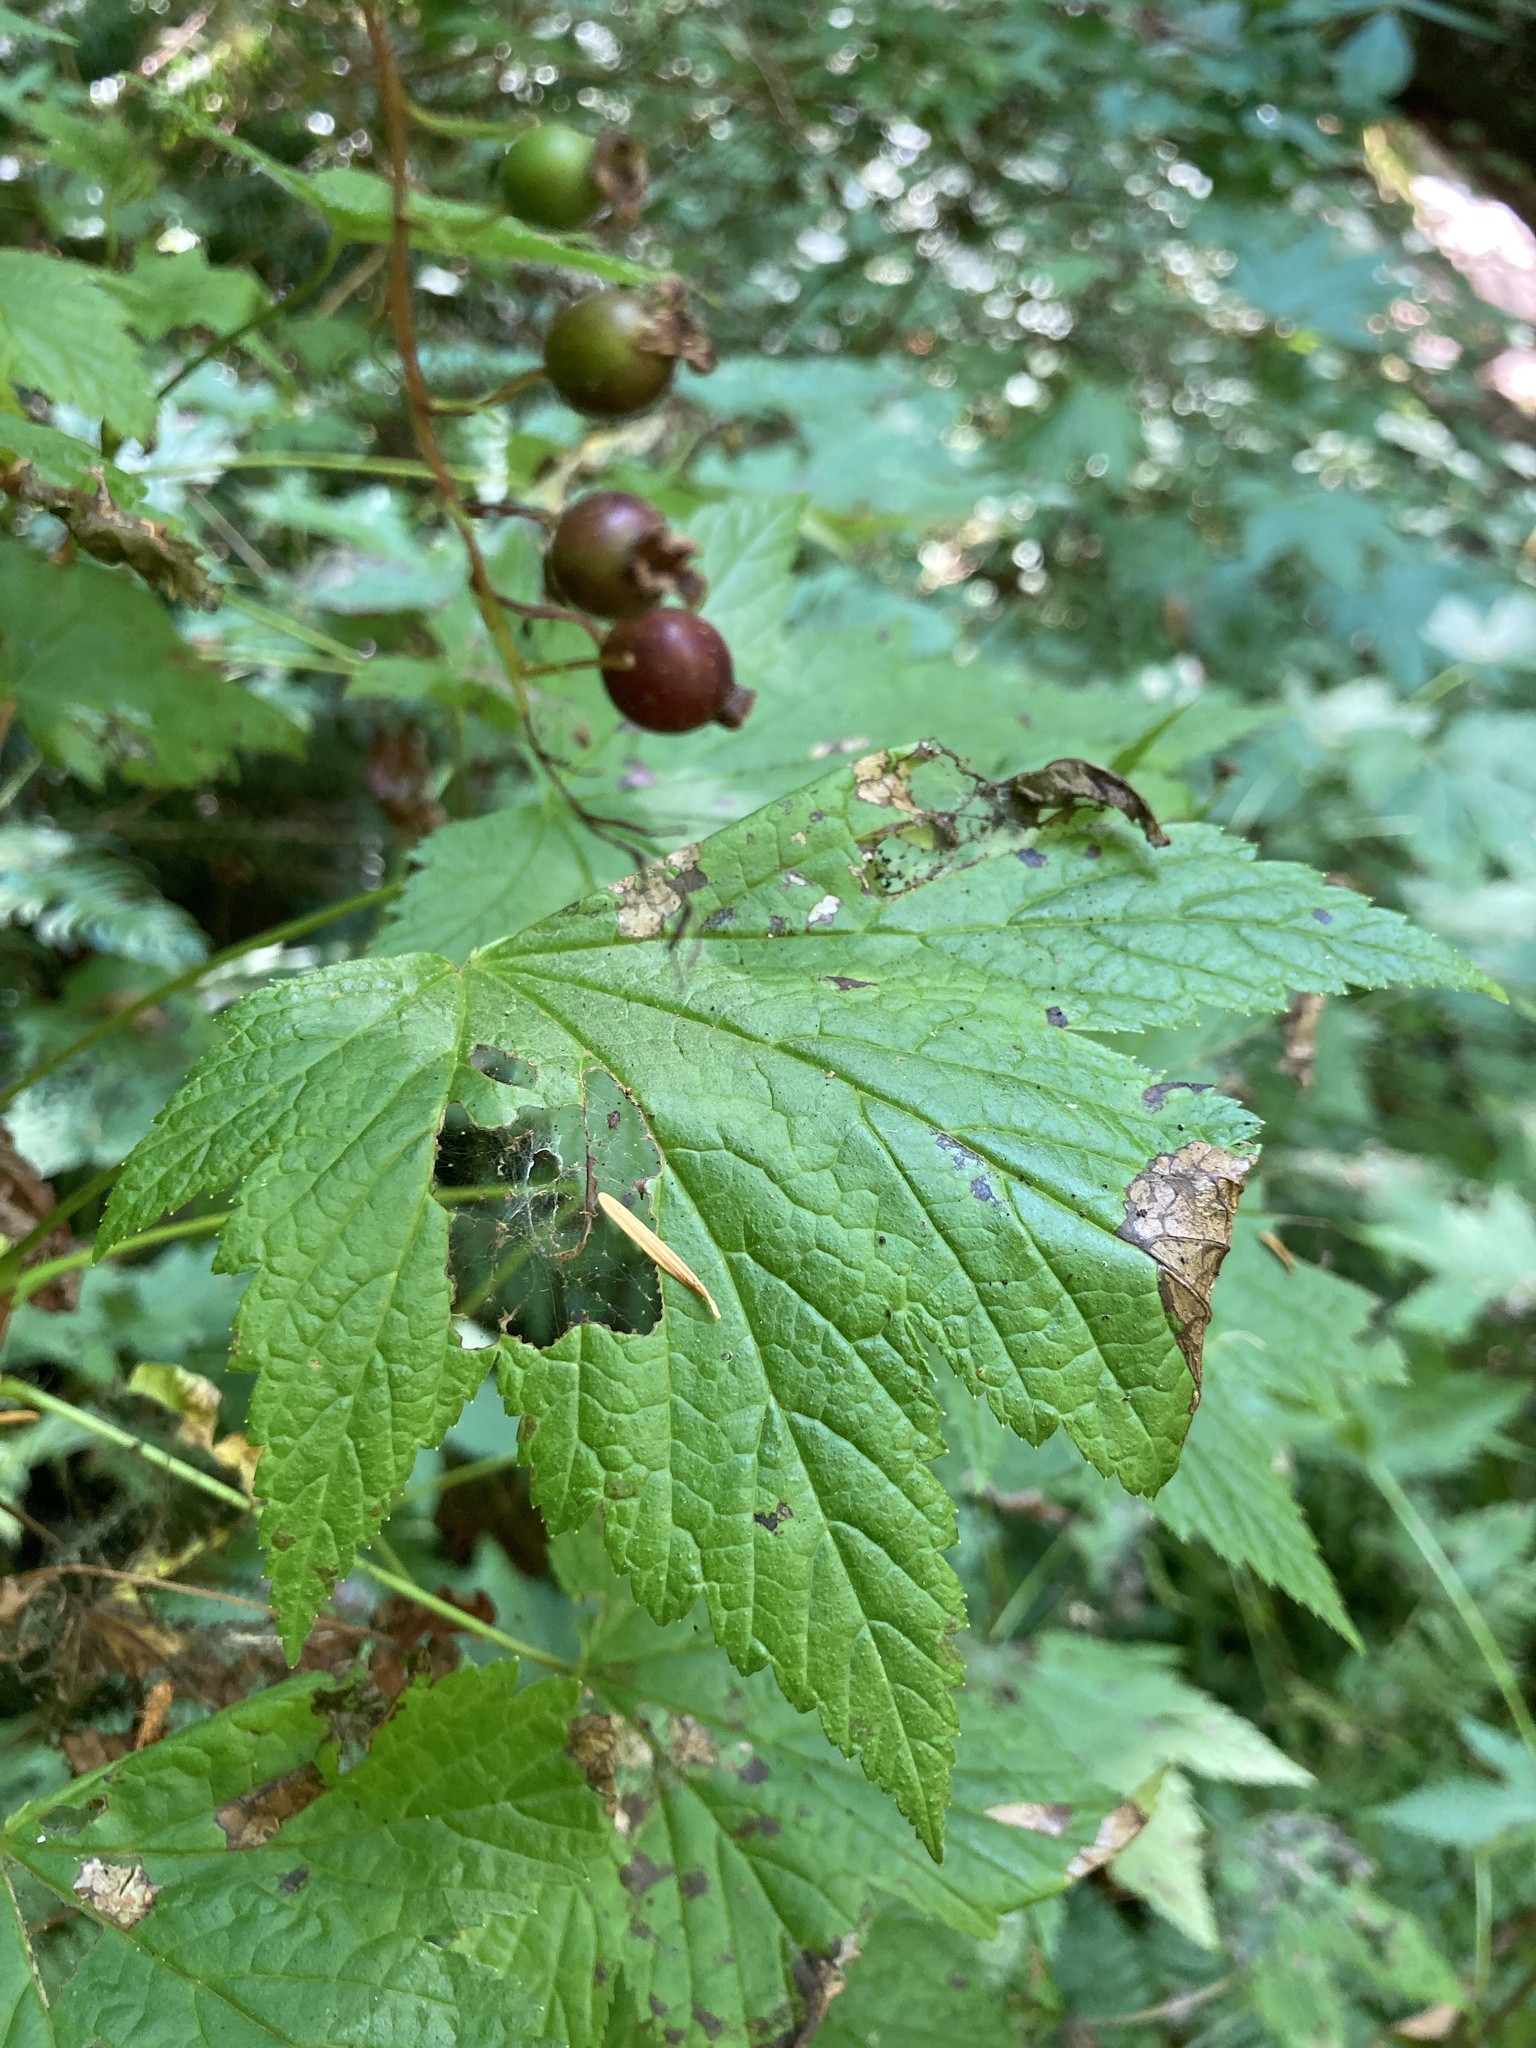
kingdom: Plantae
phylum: Tracheophyta
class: Magnoliopsida
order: Saxifragales
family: Grossulariaceae
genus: Ribes
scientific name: Ribes bracteosum
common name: California black currant
